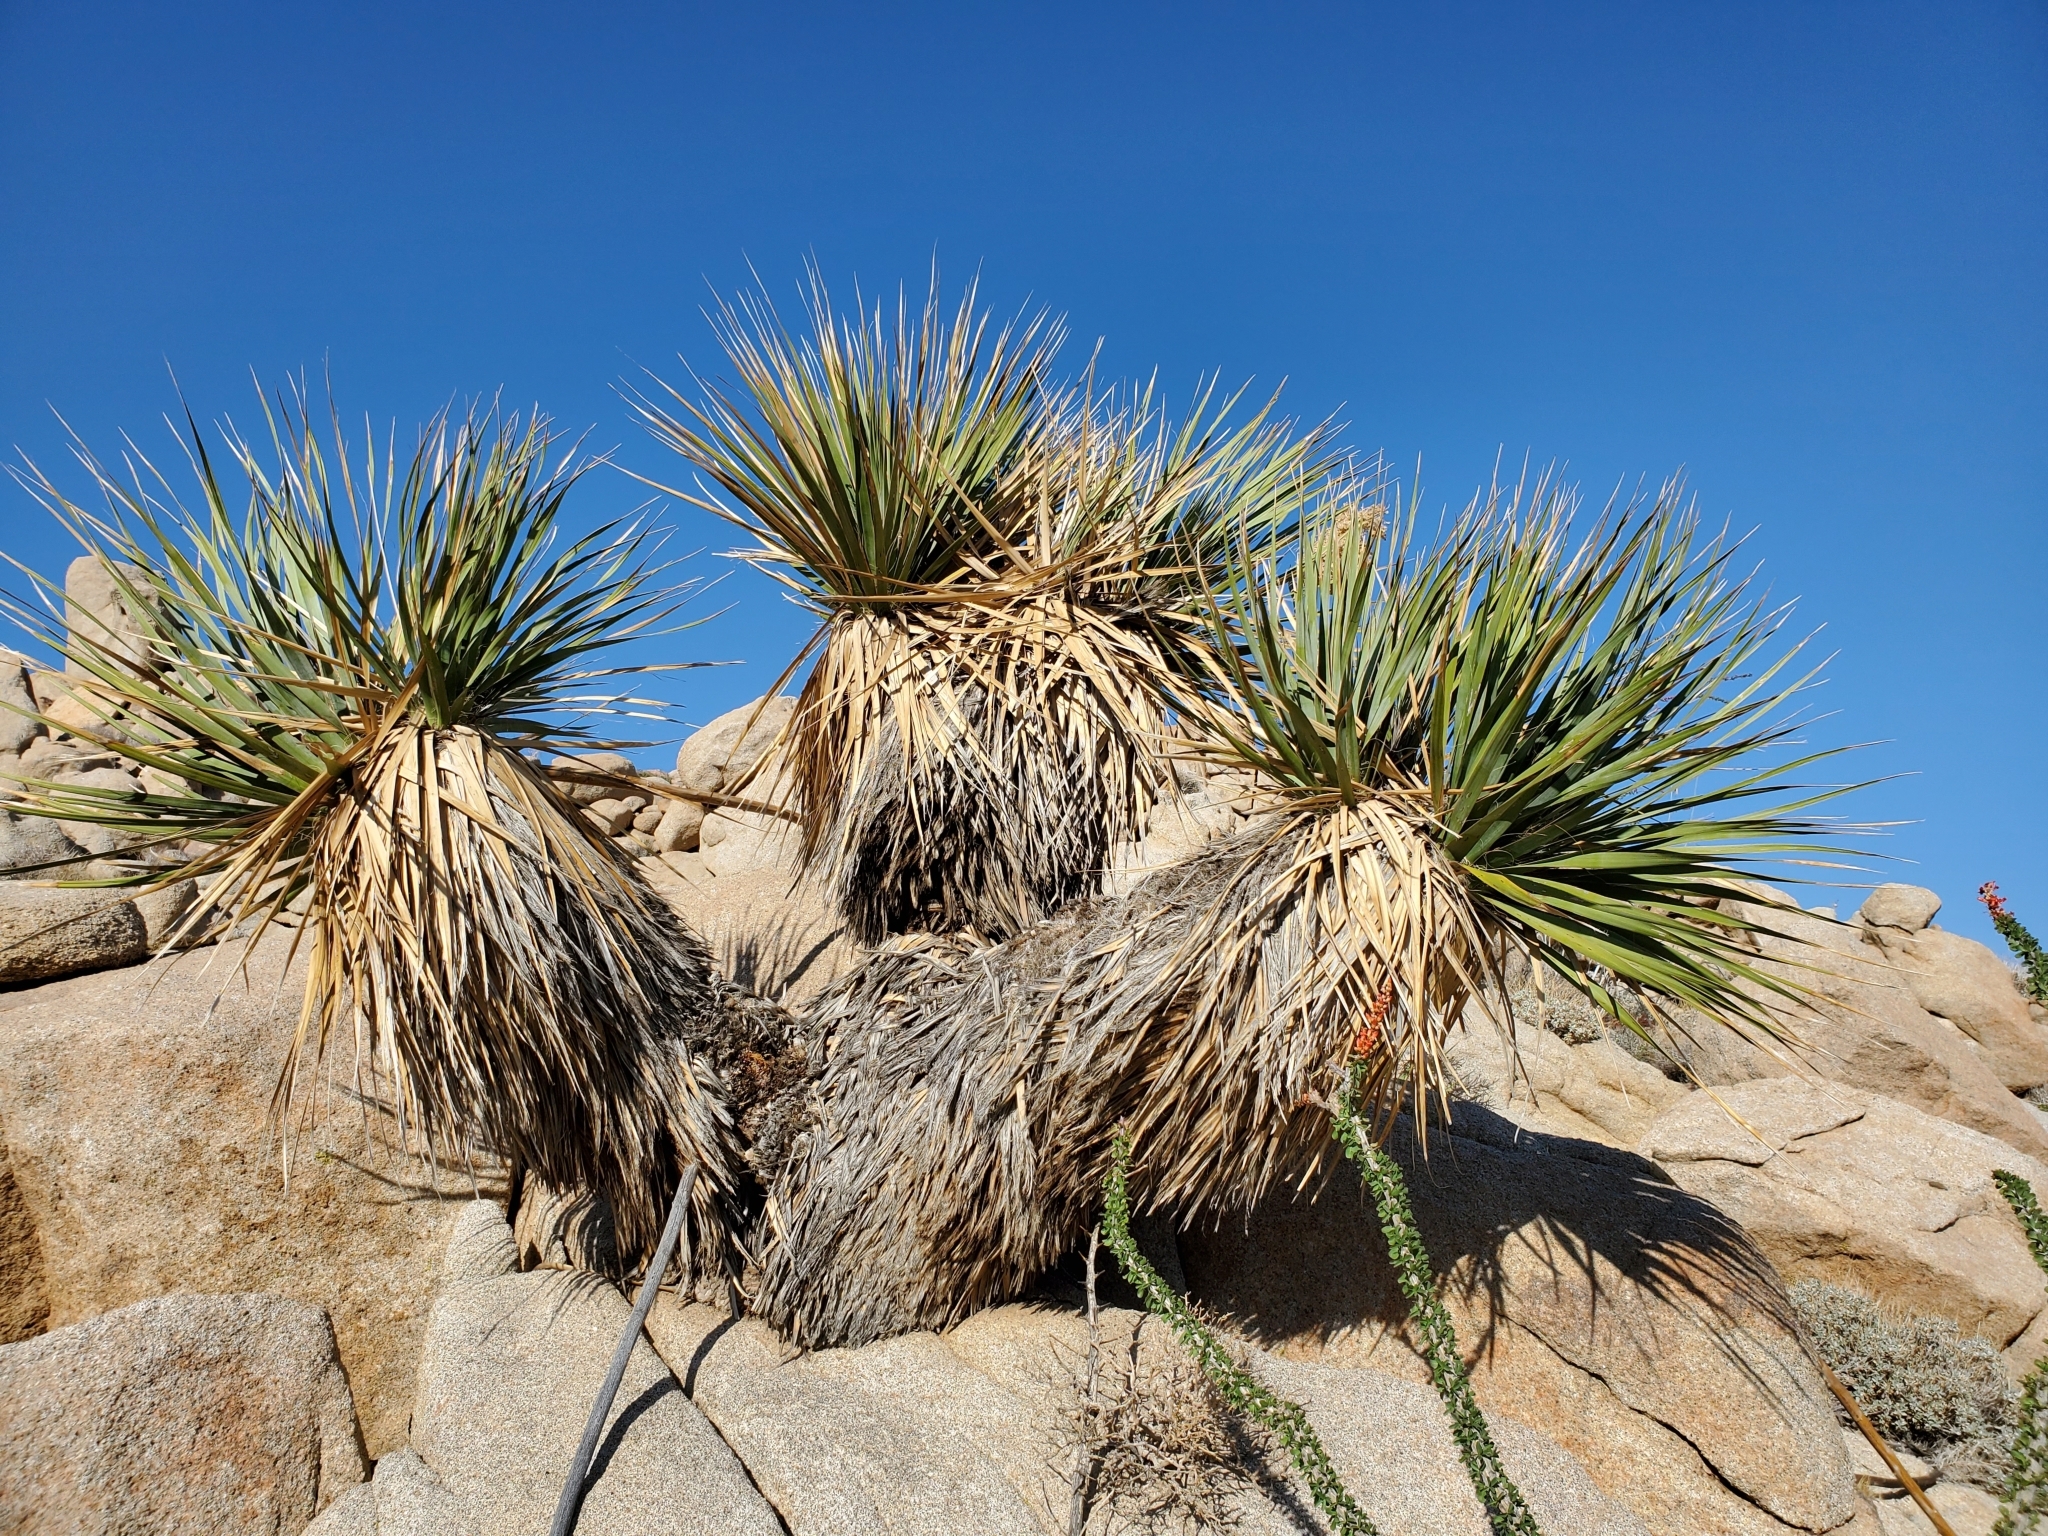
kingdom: Plantae
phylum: Tracheophyta
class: Liliopsida
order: Asparagales
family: Asparagaceae
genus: Nolina
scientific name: Nolina bigelovii
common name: Bigelow bear-grass
